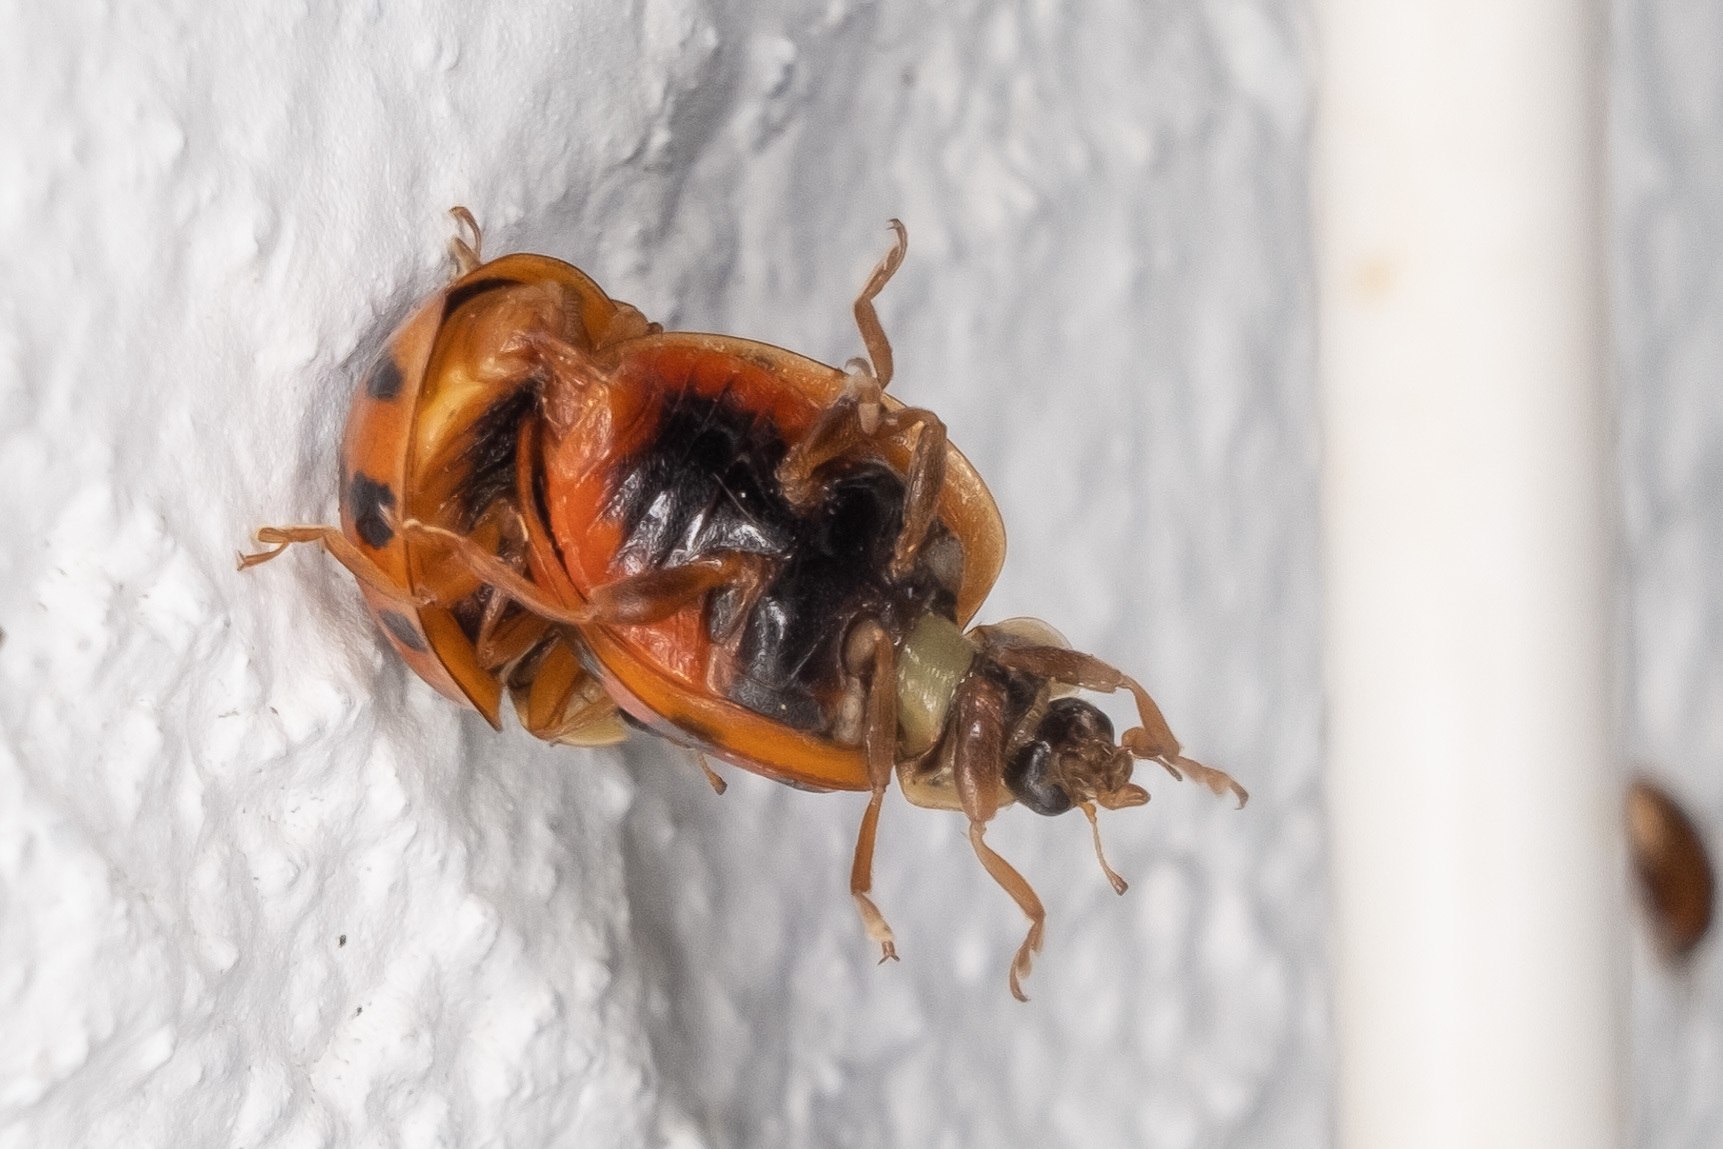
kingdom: Animalia
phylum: Arthropoda
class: Insecta
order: Coleoptera
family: Coccinellidae
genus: Harmonia
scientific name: Harmonia axyridis
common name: Harlequin ladybird
